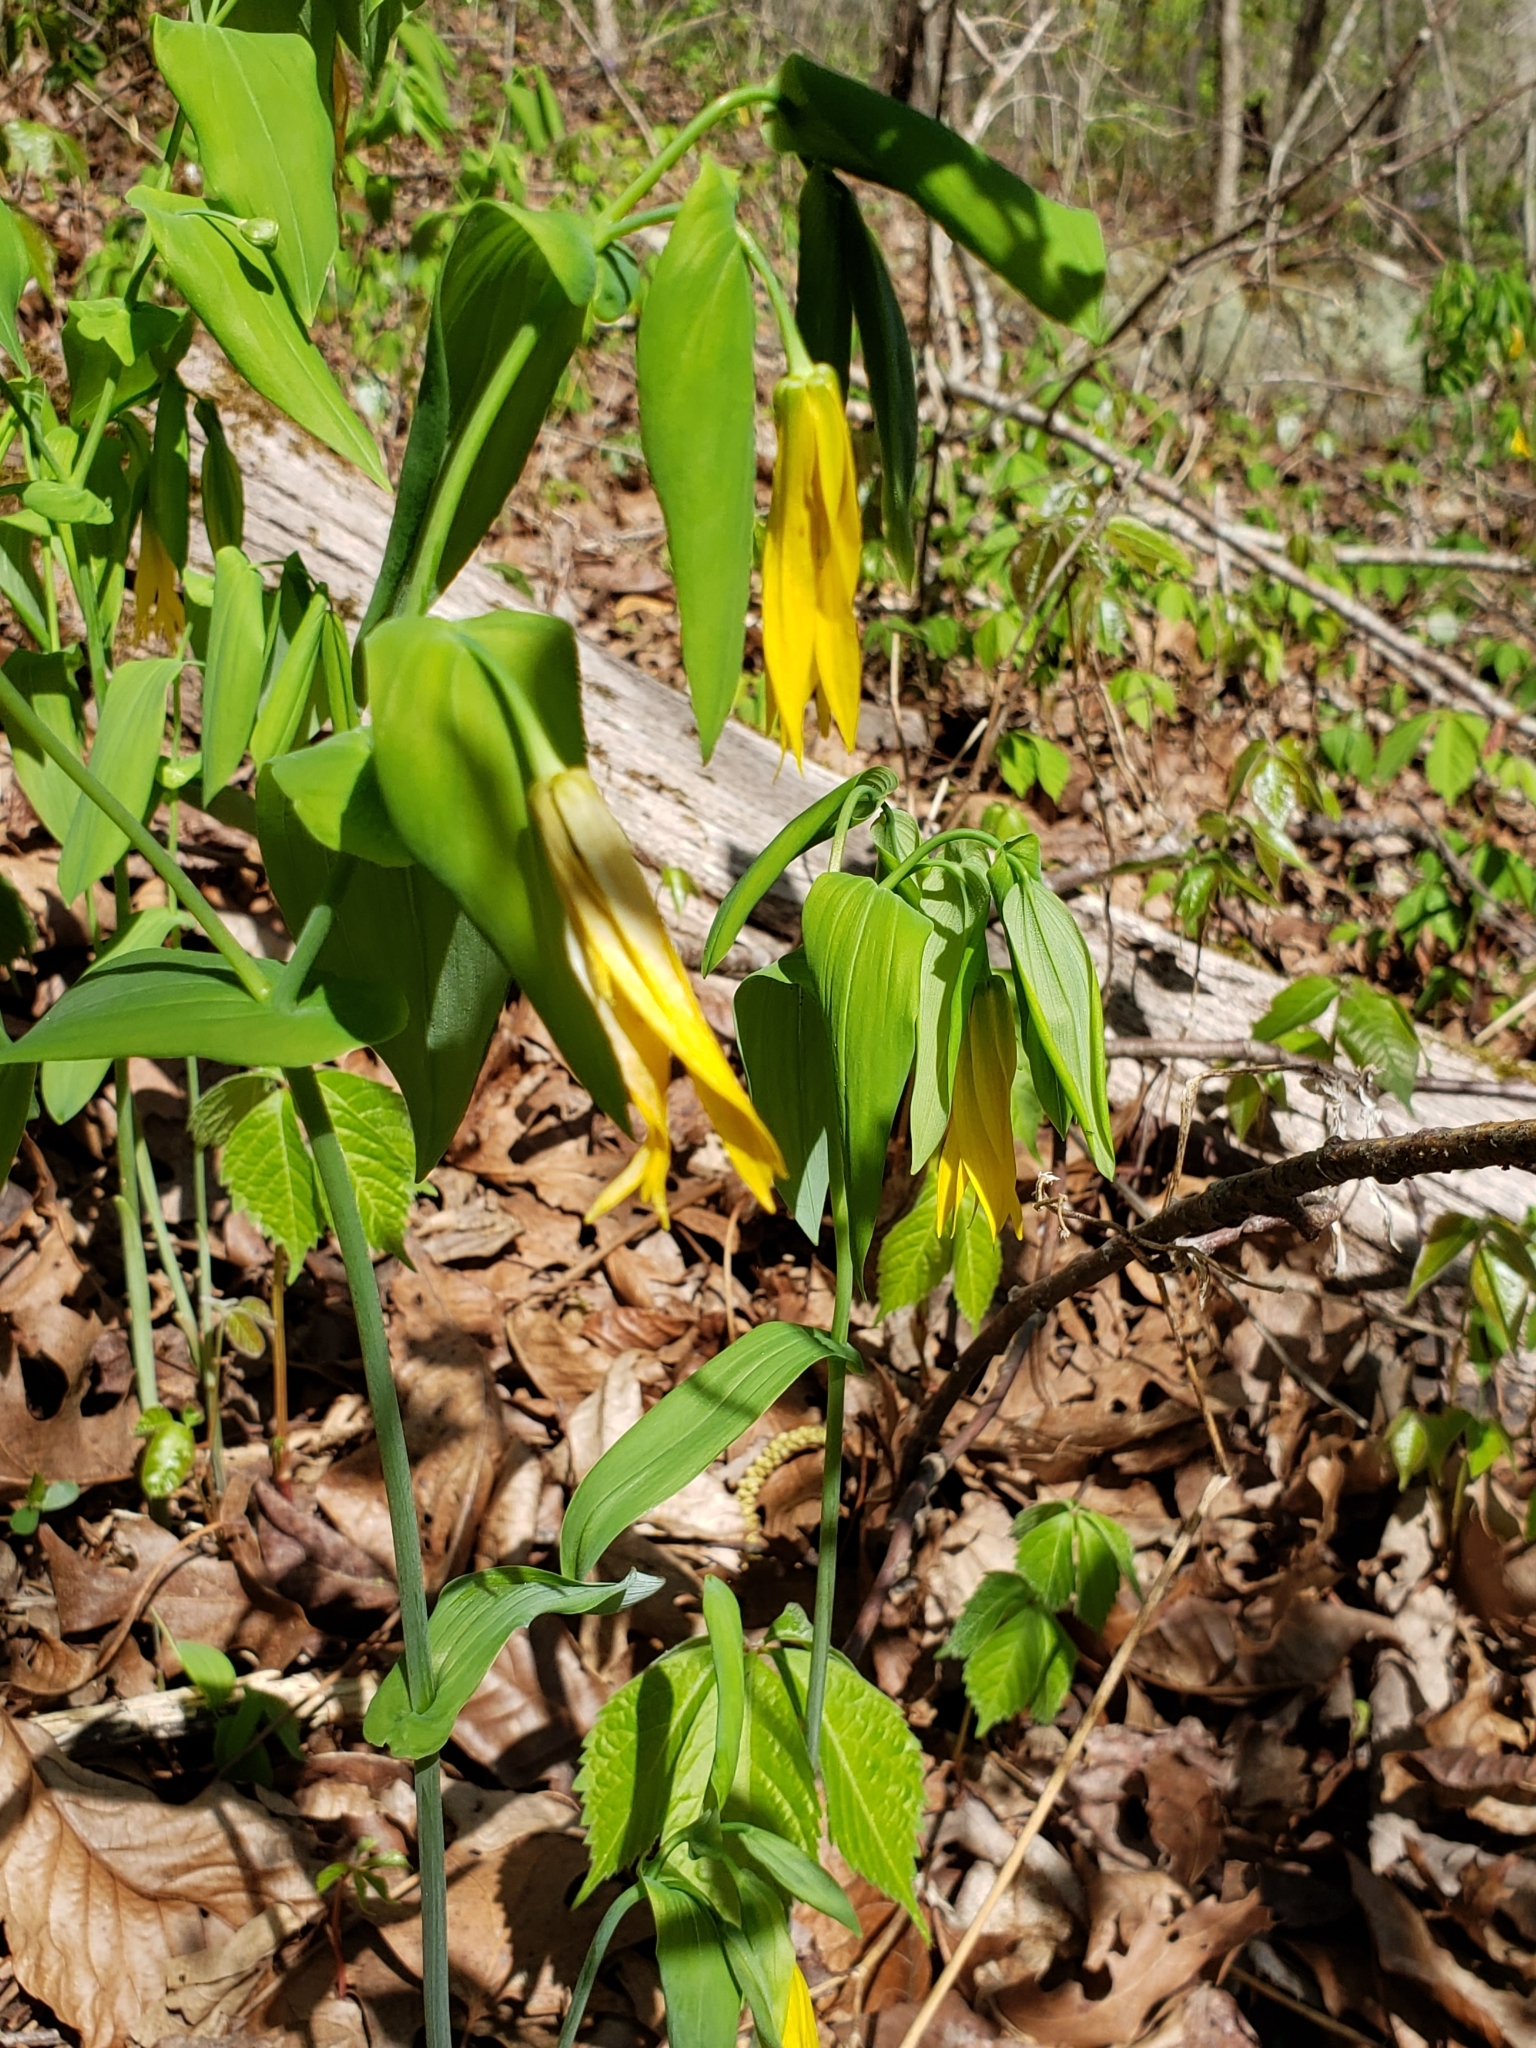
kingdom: Plantae
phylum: Tracheophyta
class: Liliopsida
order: Liliales
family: Colchicaceae
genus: Uvularia
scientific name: Uvularia grandiflora
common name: Bellwort
